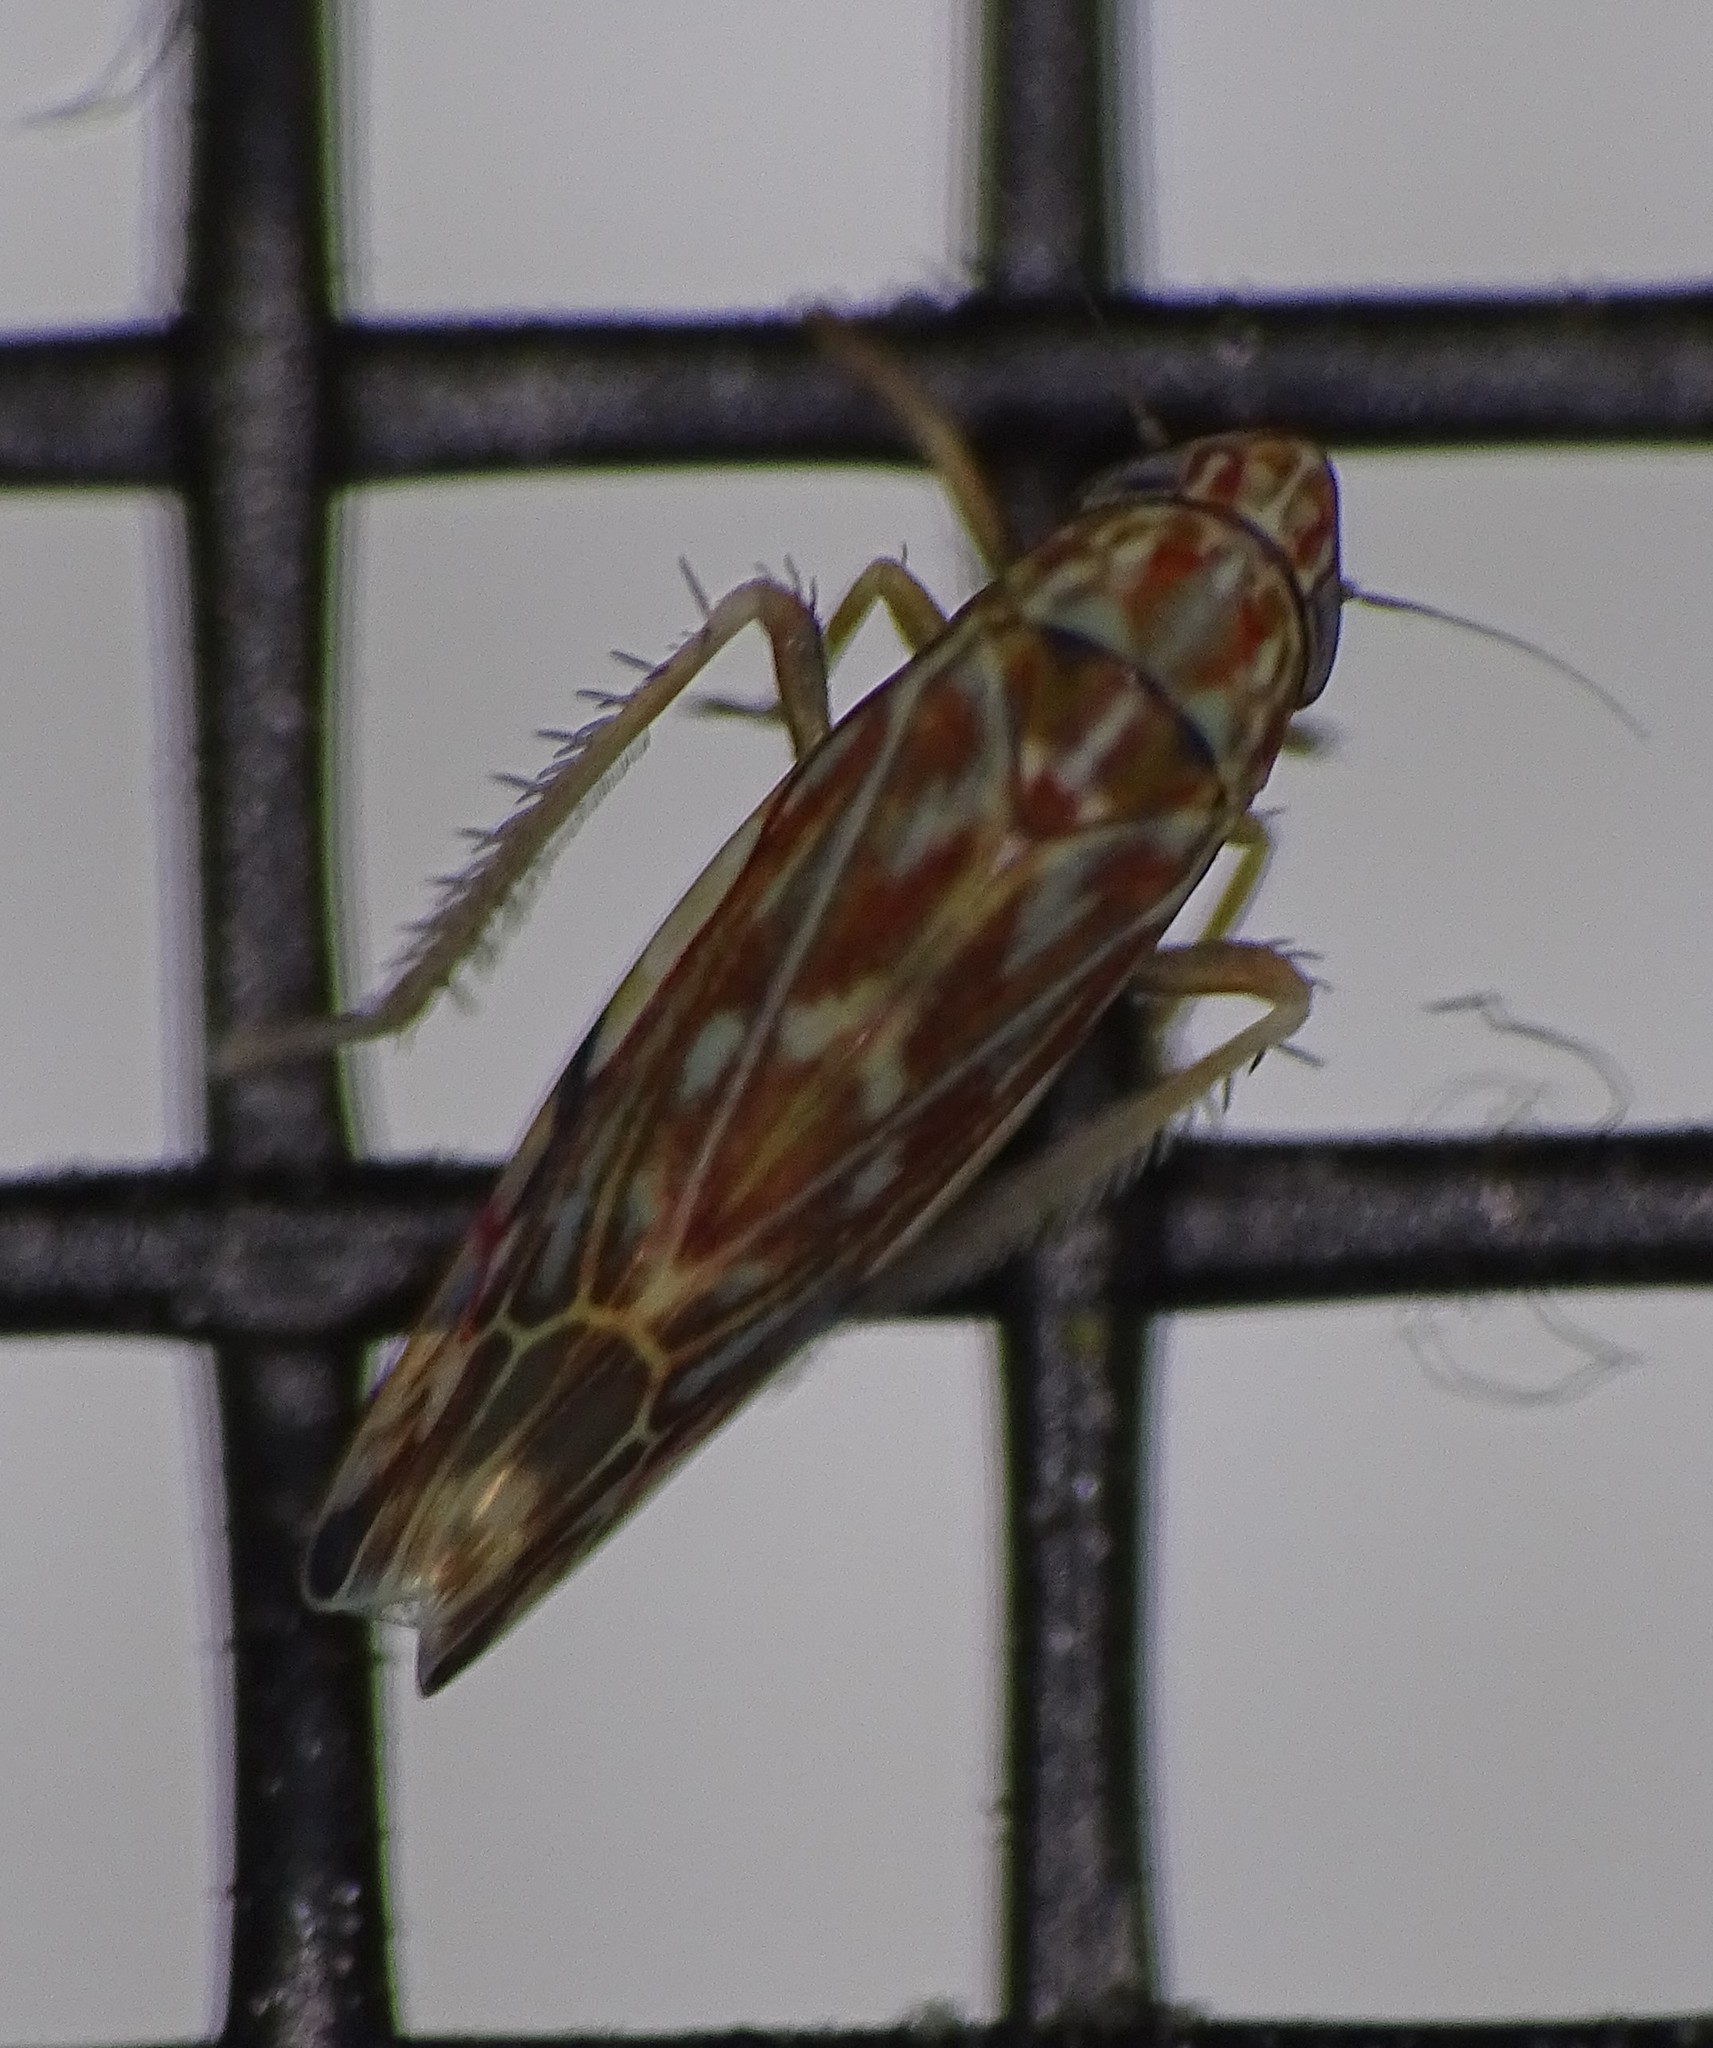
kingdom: Animalia
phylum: Arthropoda
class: Insecta
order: Hemiptera
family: Cicadellidae
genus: Erasmoneura
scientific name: Erasmoneura vulnerata
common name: The wounded leafhopper
